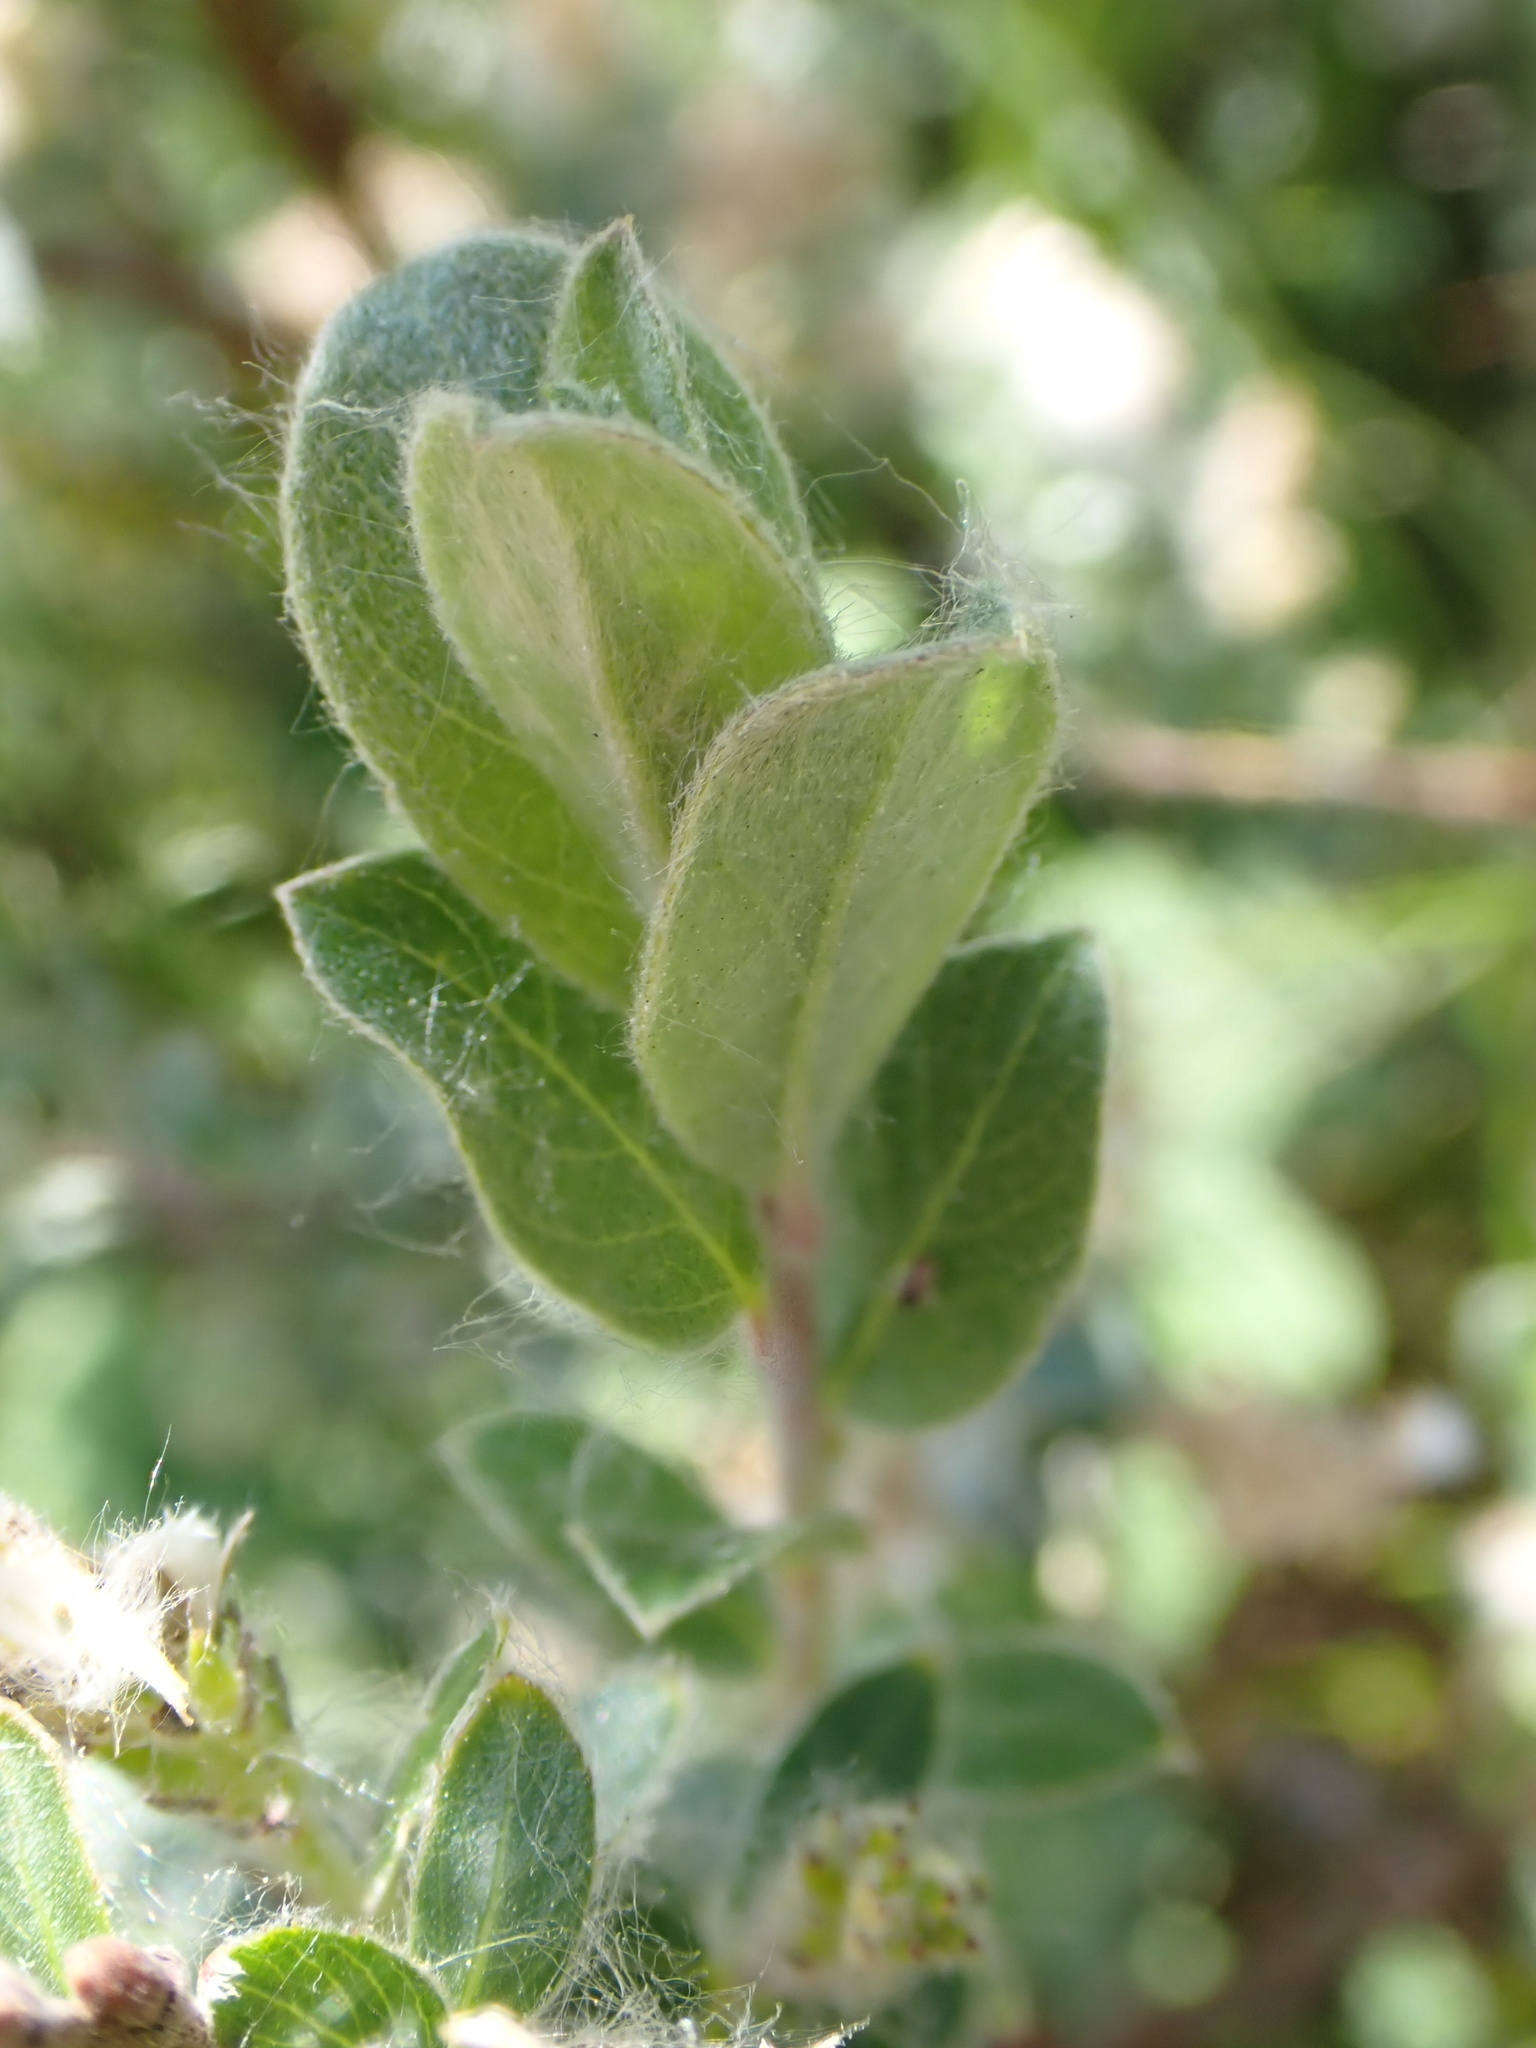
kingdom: Plantae
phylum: Tracheophyta
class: Magnoliopsida
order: Malpighiales
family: Salicaceae
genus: Salix
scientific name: Salix repens
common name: Creeping willow
